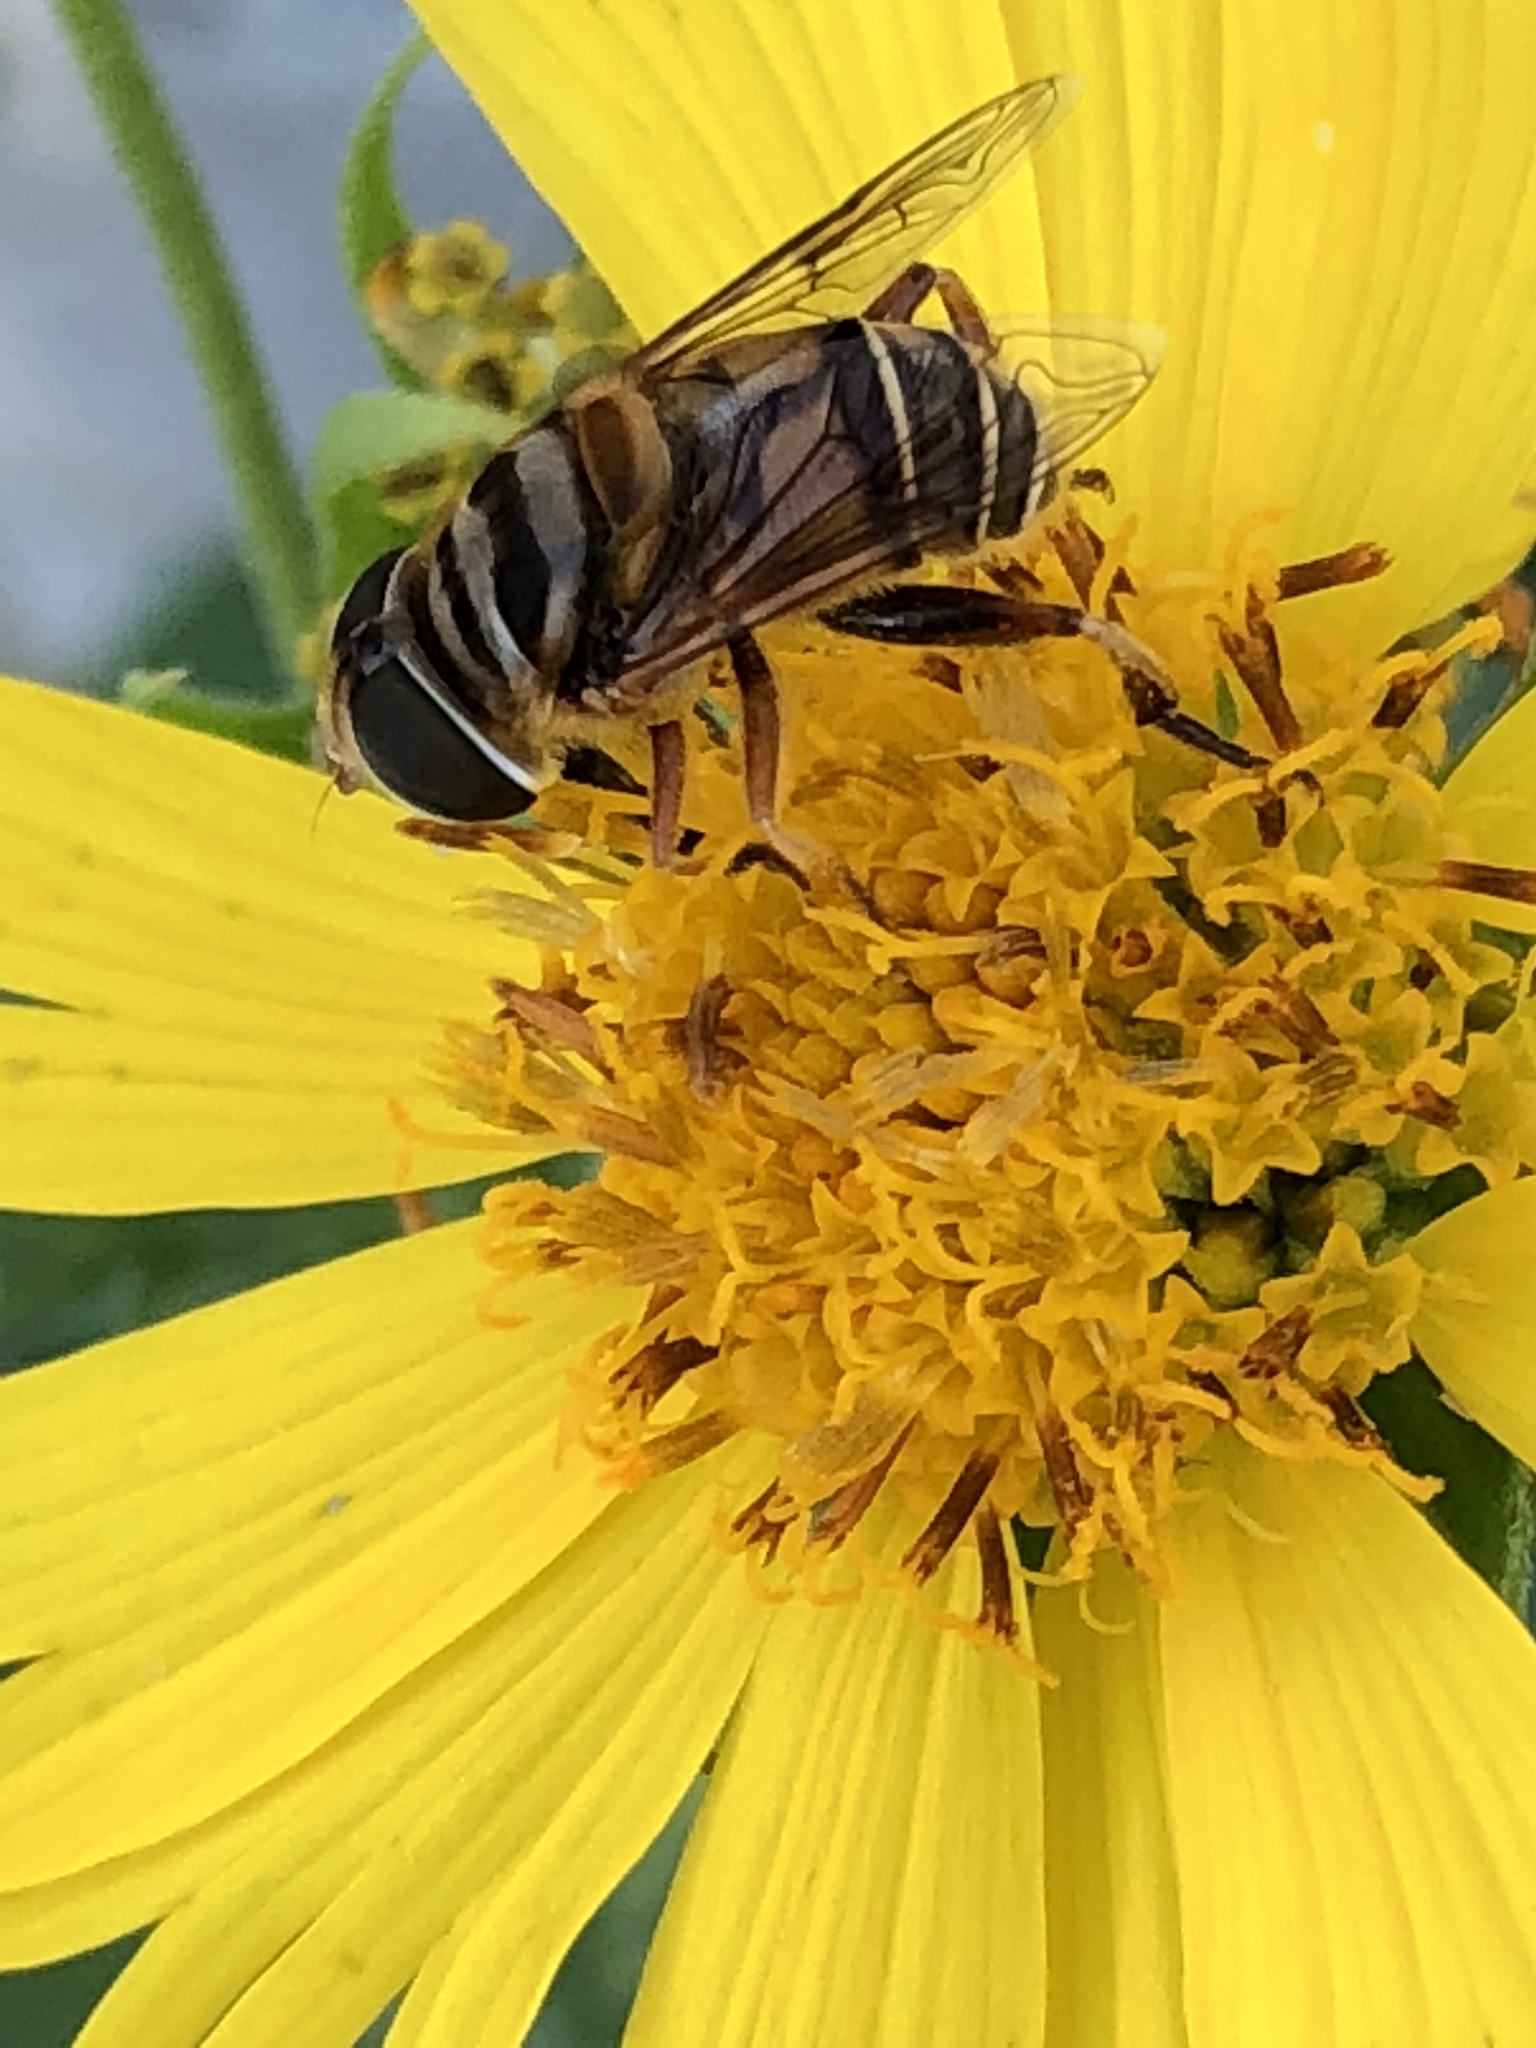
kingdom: Animalia
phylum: Arthropoda
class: Insecta
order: Diptera
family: Syrphidae
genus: Palpada
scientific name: Palpada vinetorum
